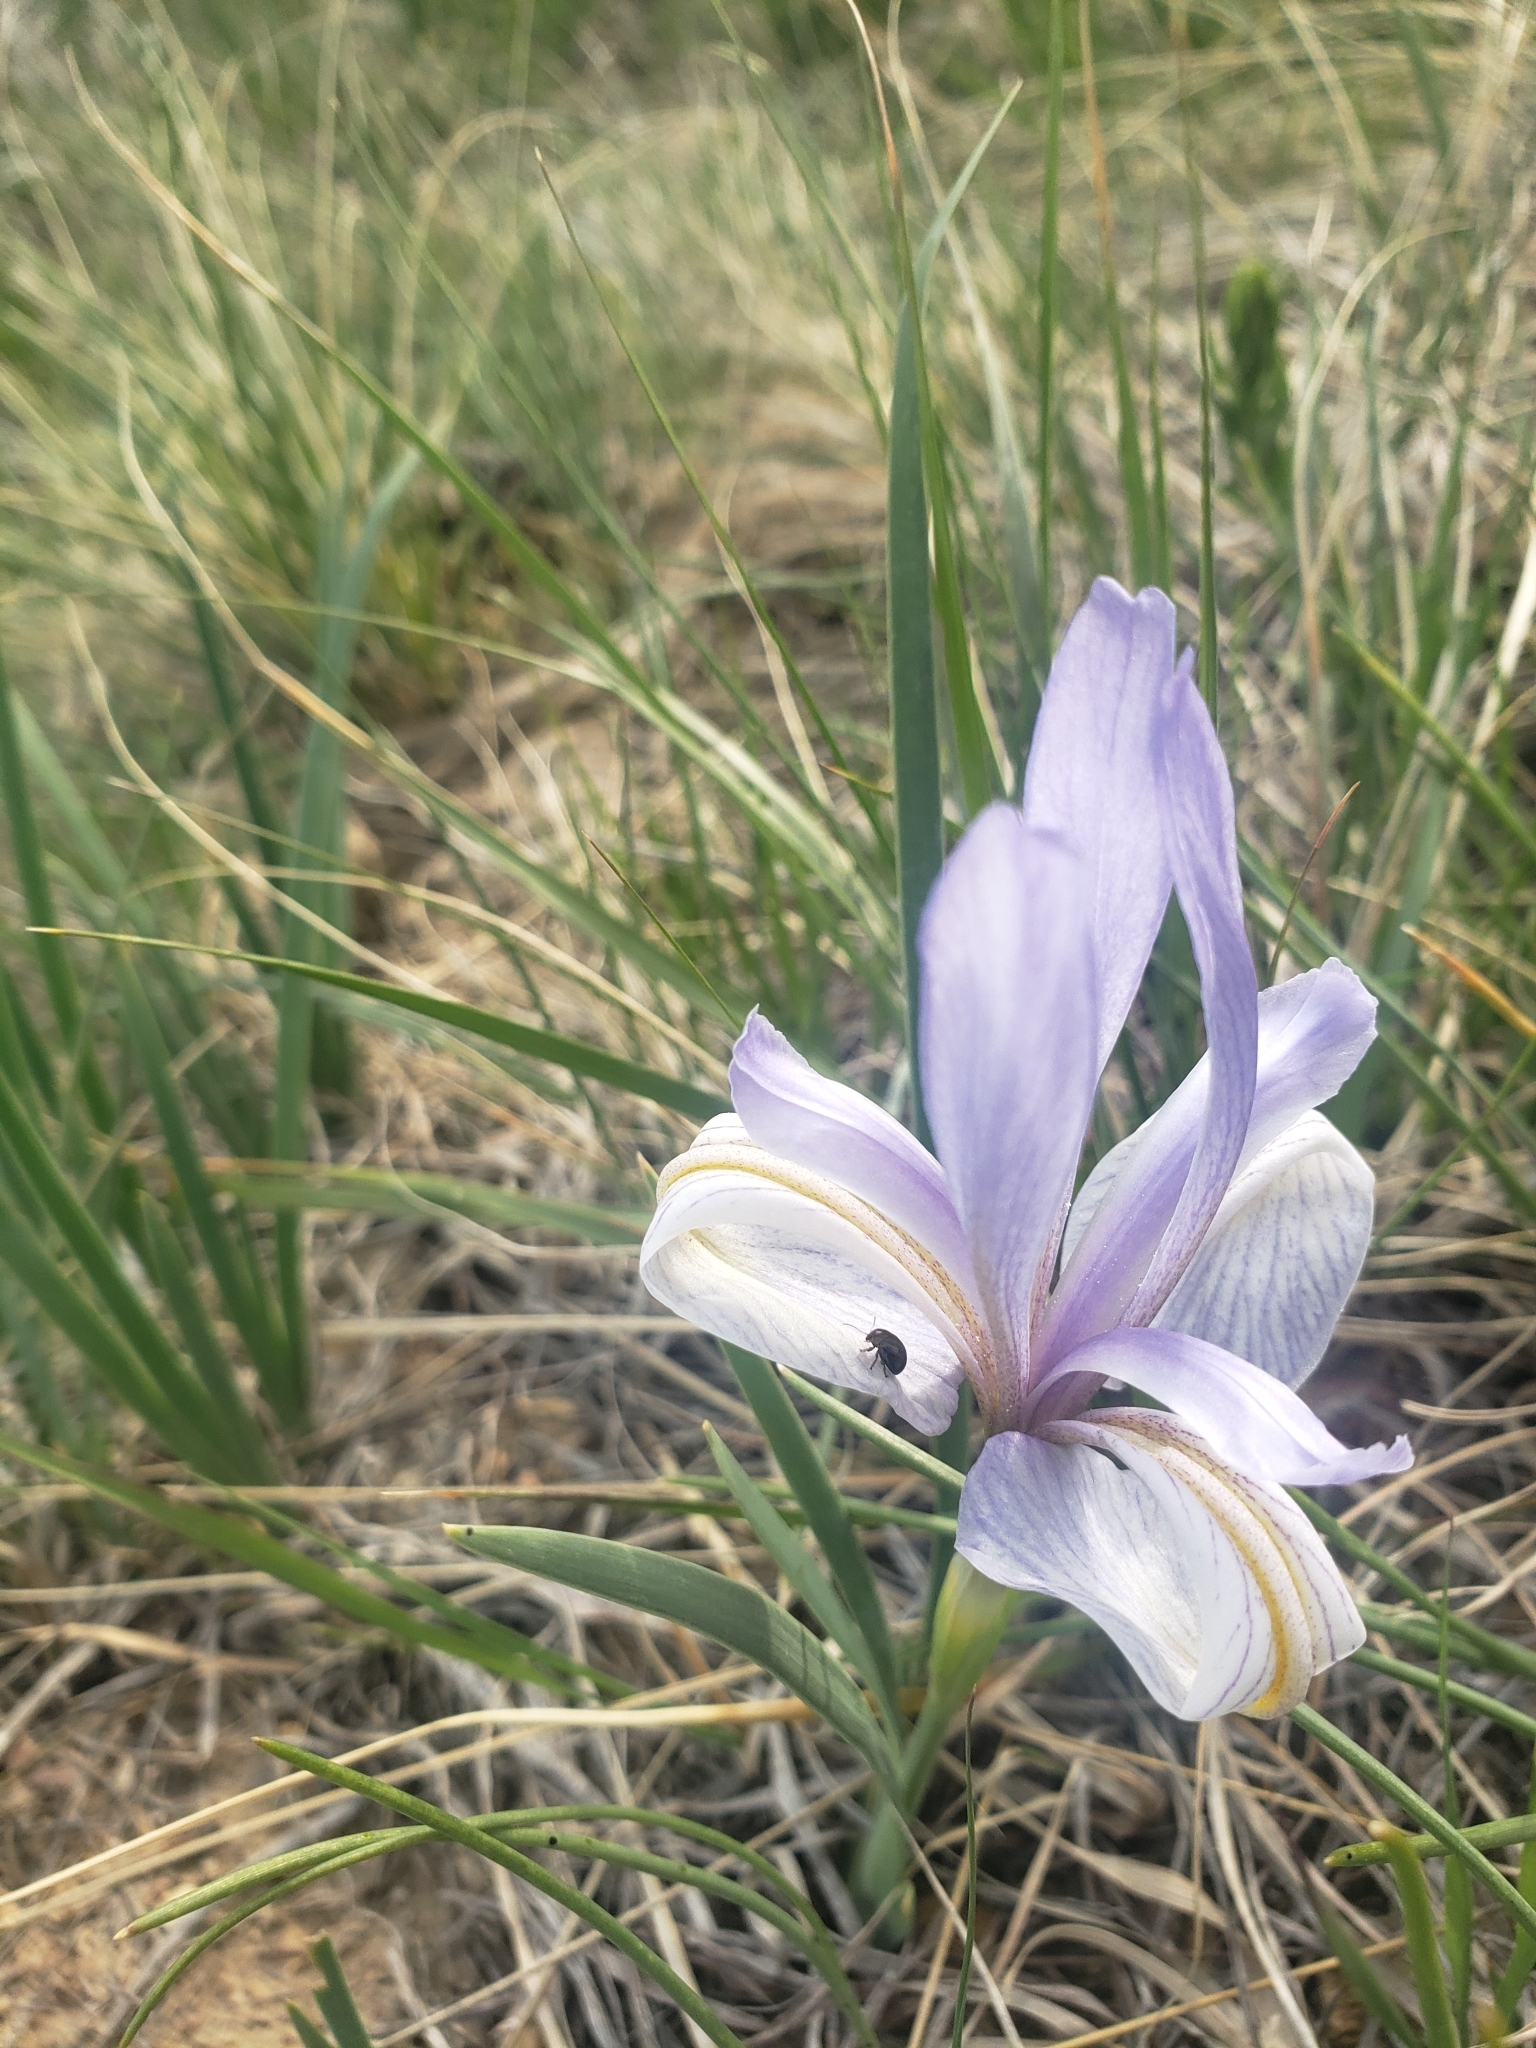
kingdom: Plantae
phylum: Tracheophyta
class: Liliopsida
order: Asparagales
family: Iridaceae
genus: Iris
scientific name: Iris missouriensis
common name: Rocky mountain iris
